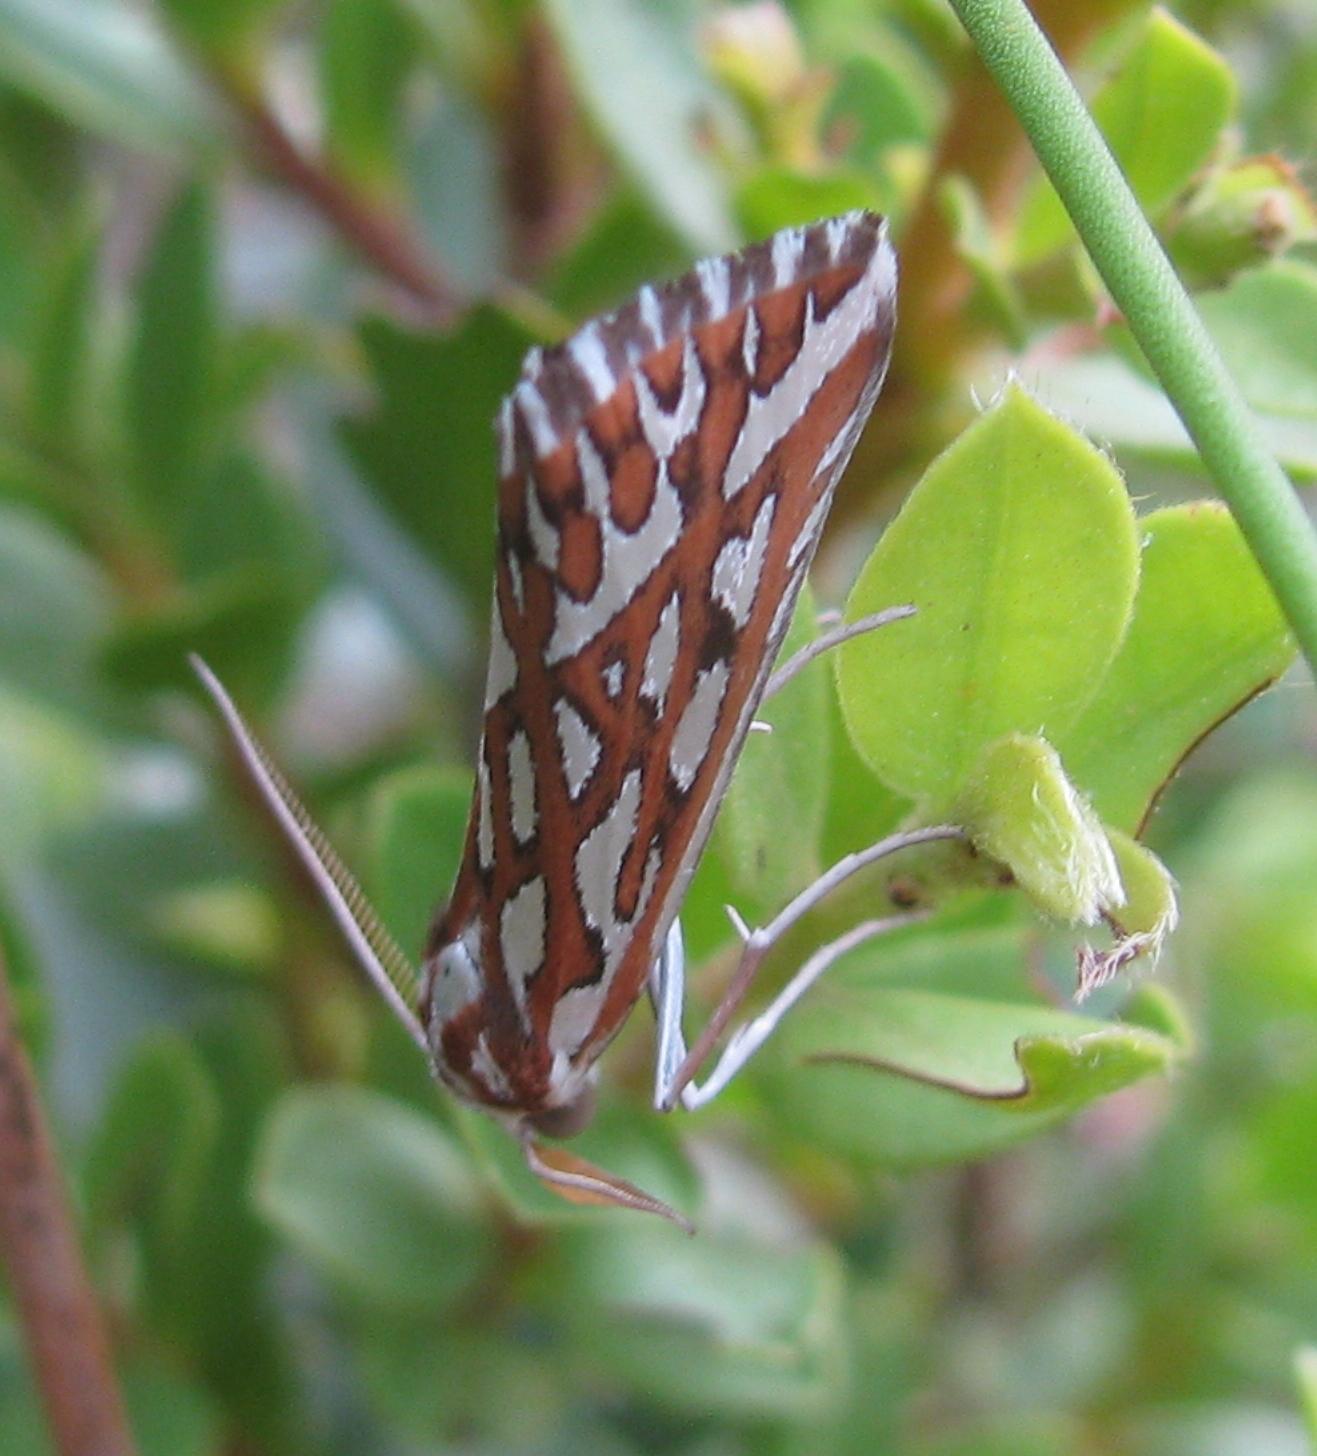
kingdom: Animalia
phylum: Arthropoda
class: Insecta
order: Lepidoptera
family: Geometridae
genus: Argyrophora
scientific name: Argyrophora trofonia
